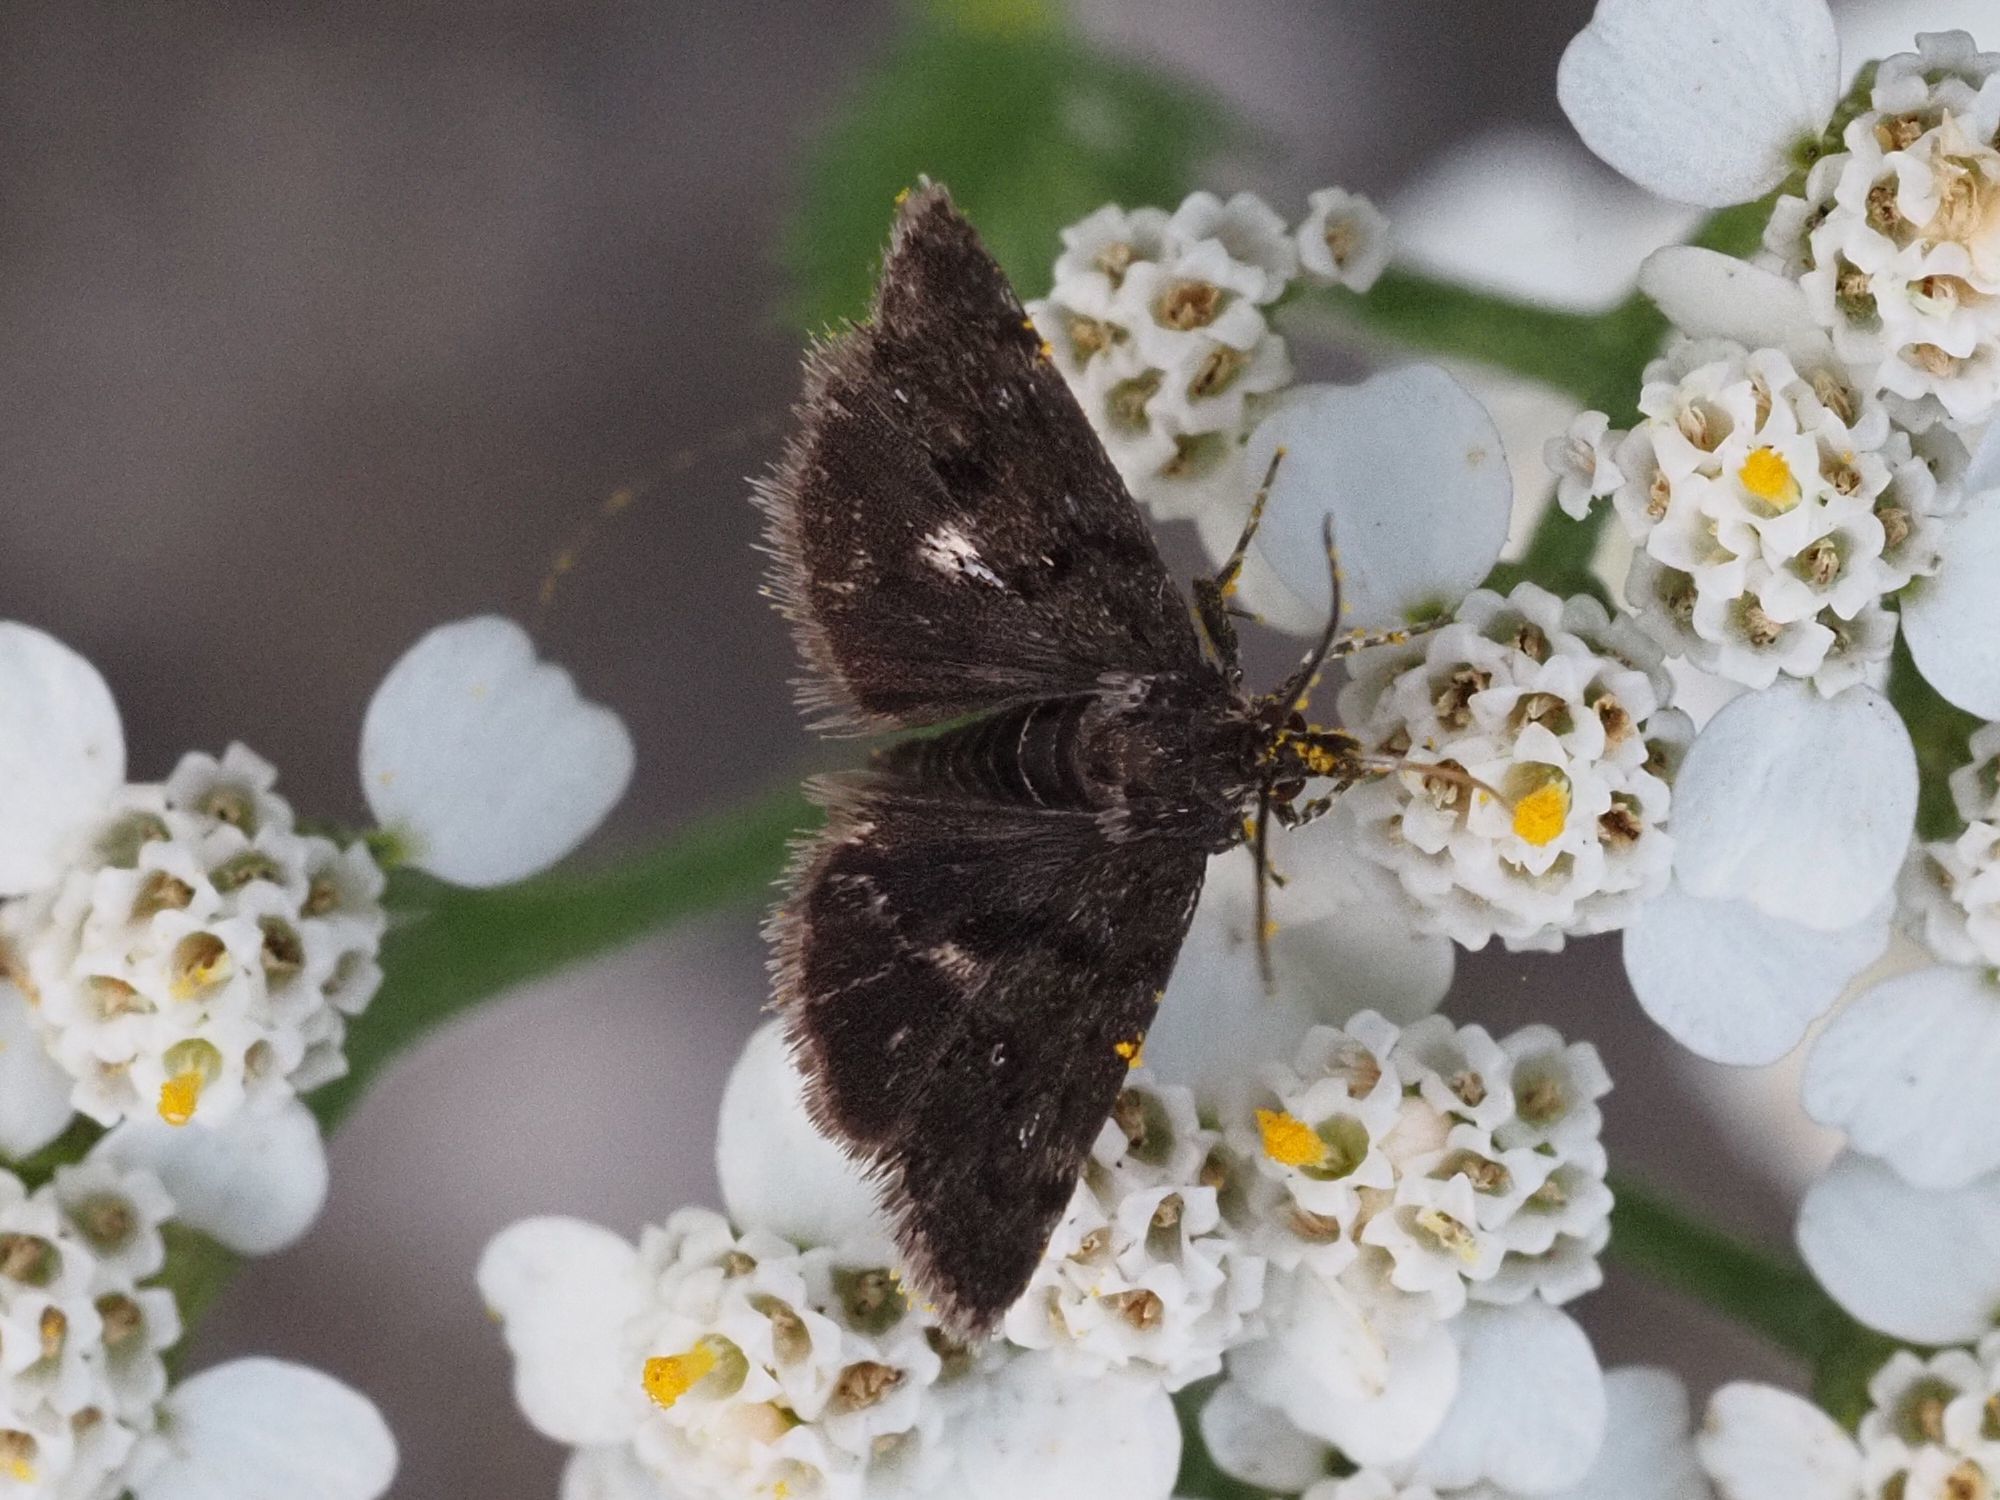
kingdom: Animalia
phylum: Arthropoda
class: Insecta
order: Lepidoptera
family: Crambidae
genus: Heliothela
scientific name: Heliothela wulfeniana
